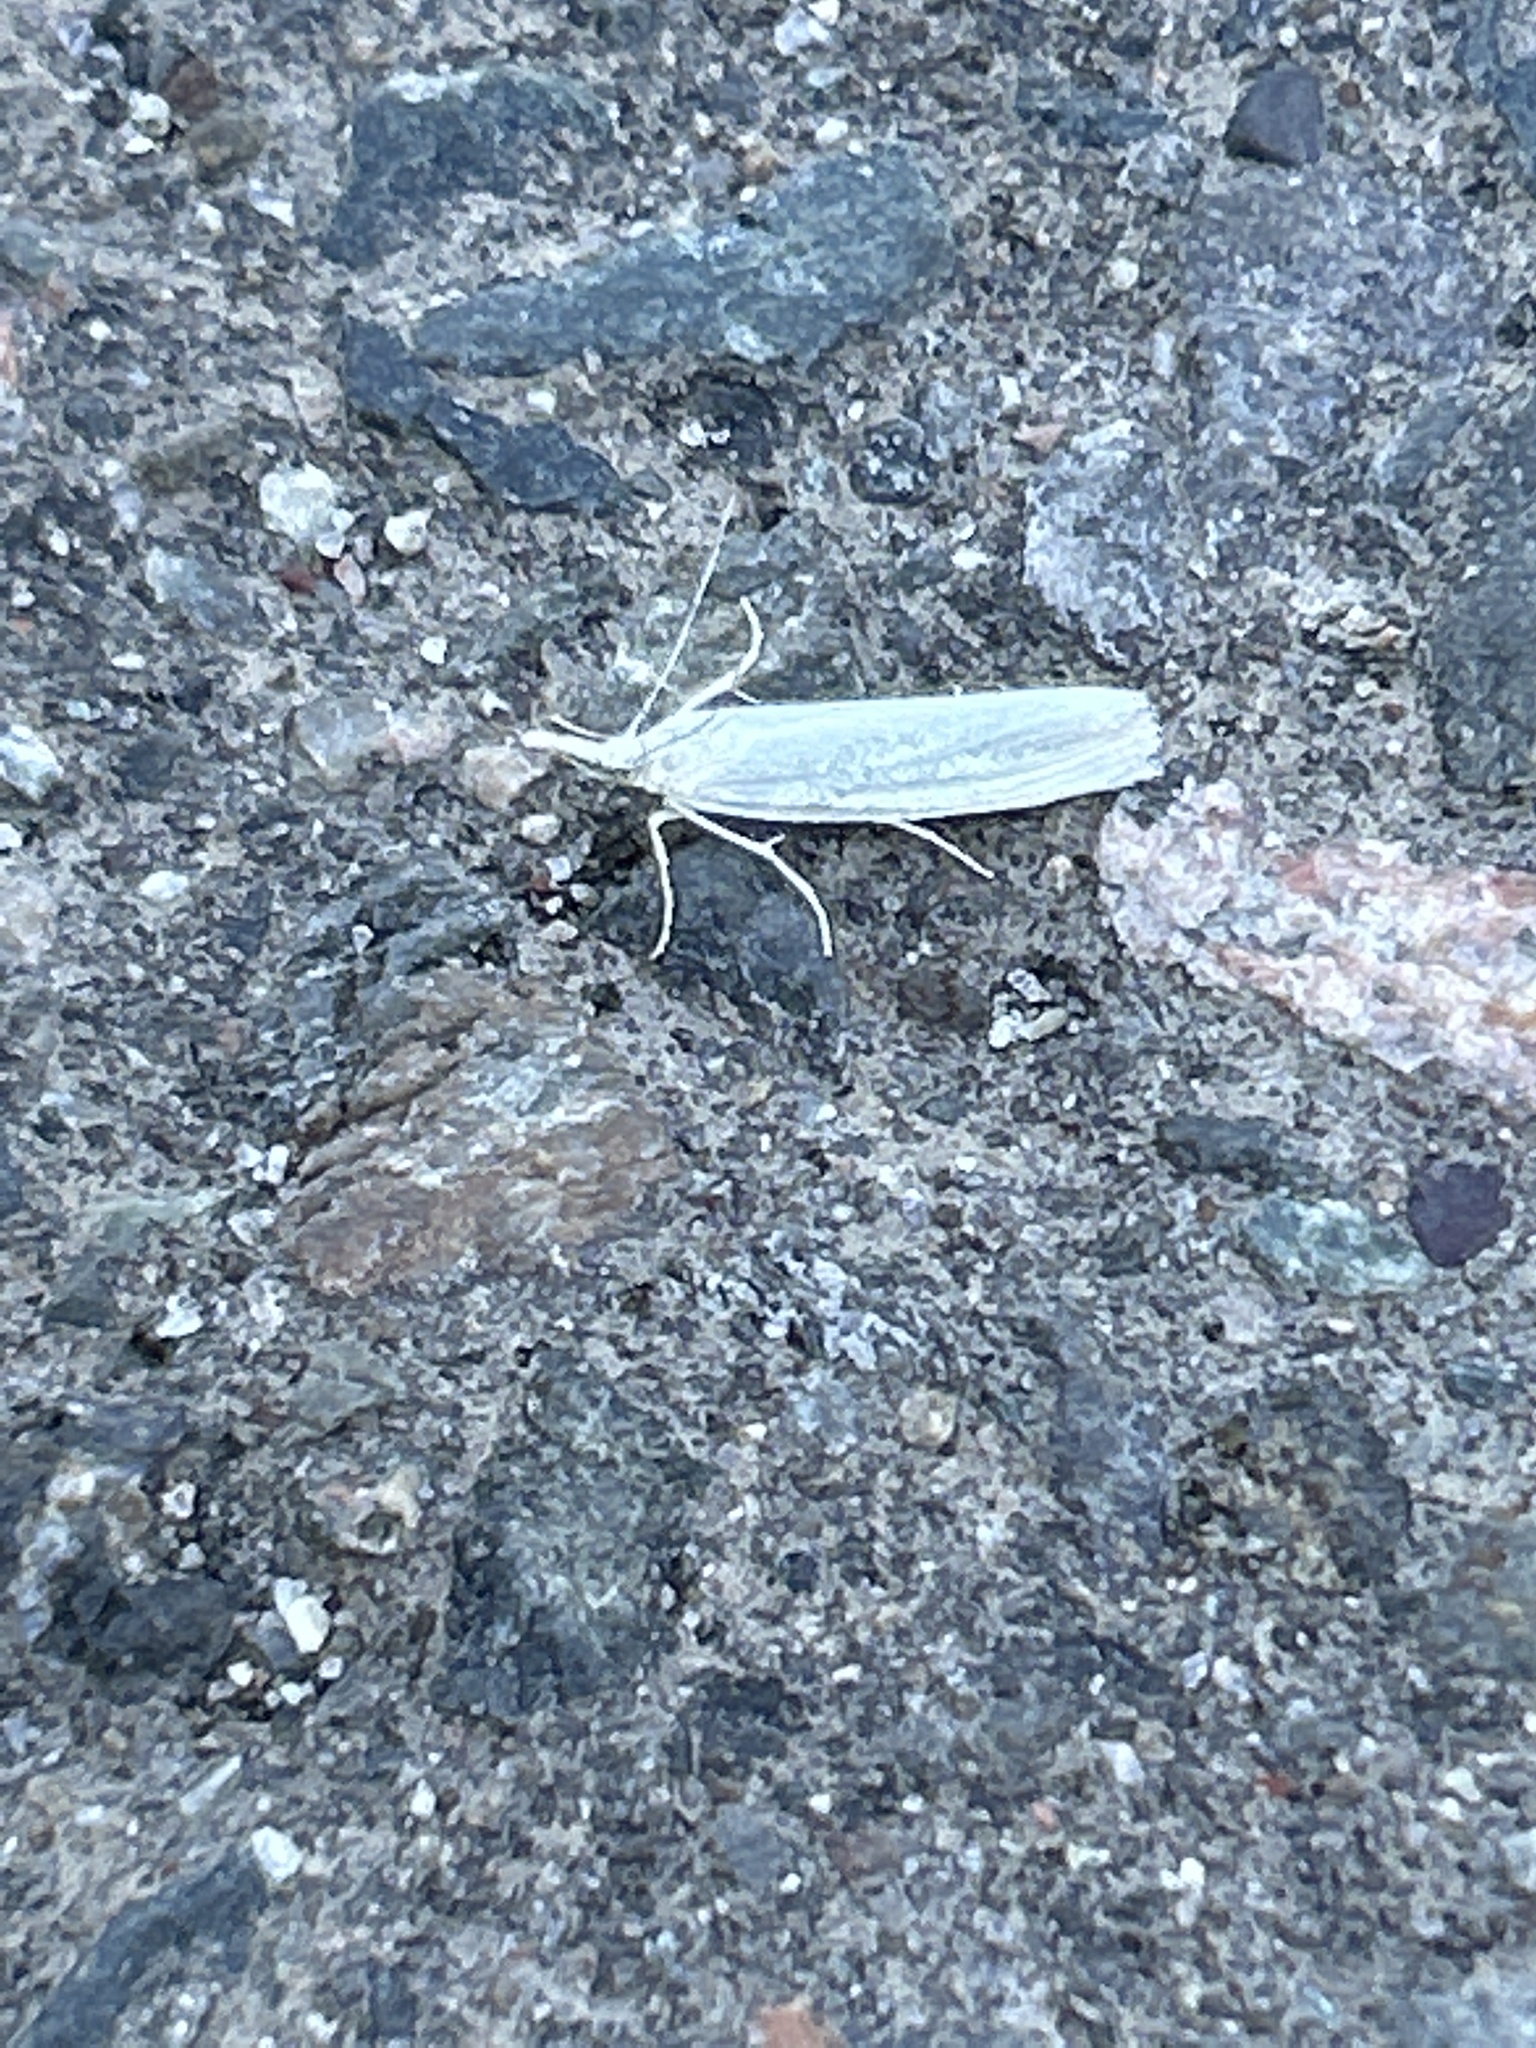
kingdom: Animalia
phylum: Arthropoda
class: Insecta
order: Lepidoptera
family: Crambidae
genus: Crambus
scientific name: Crambus perlellus
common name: Yellow satin veneer
